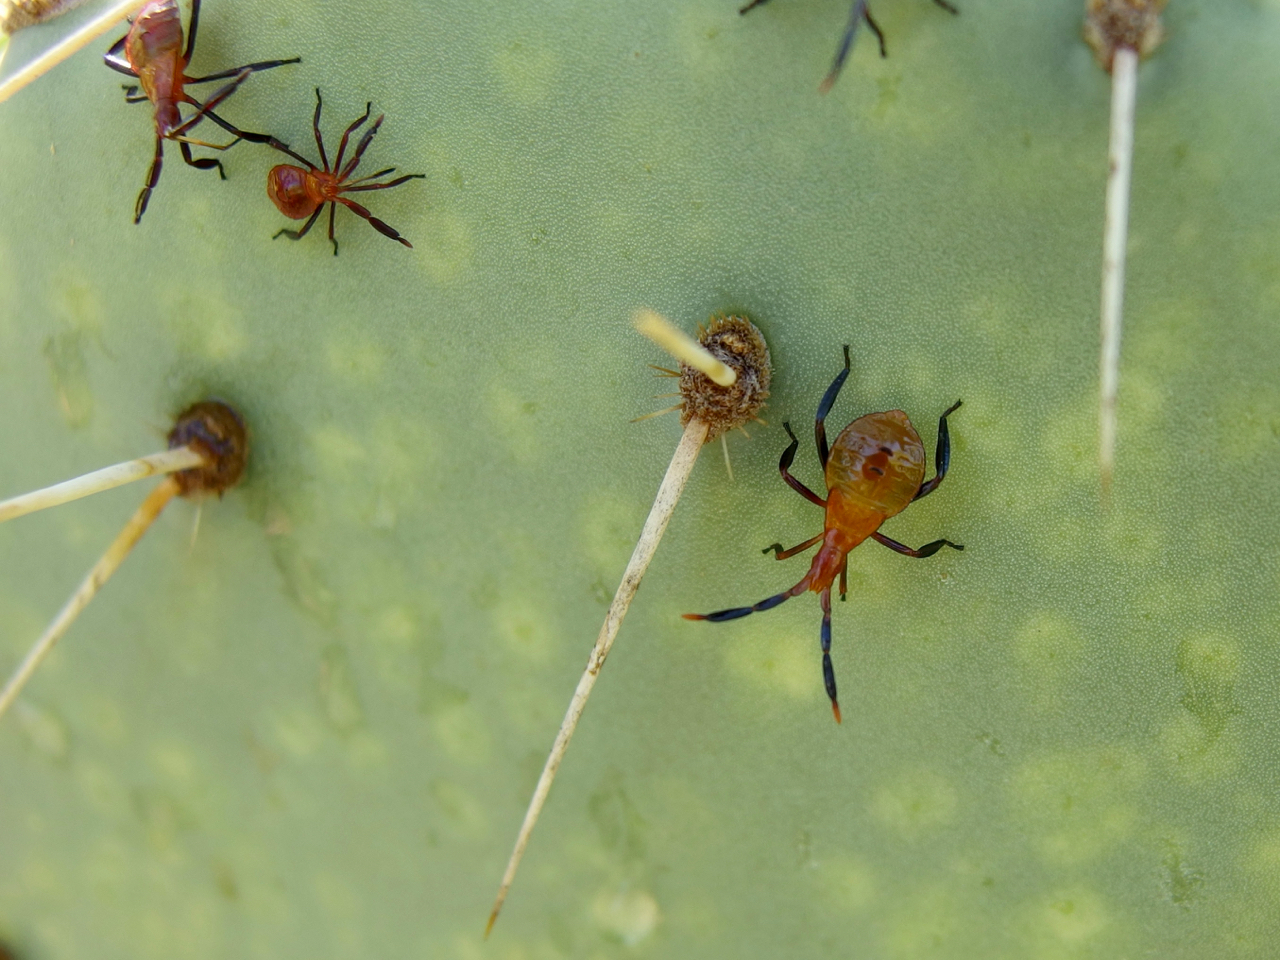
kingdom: Animalia
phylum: Arthropoda
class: Insecta
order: Hemiptera
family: Coreidae
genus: Chelinidea
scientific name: Chelinidea vittiger
